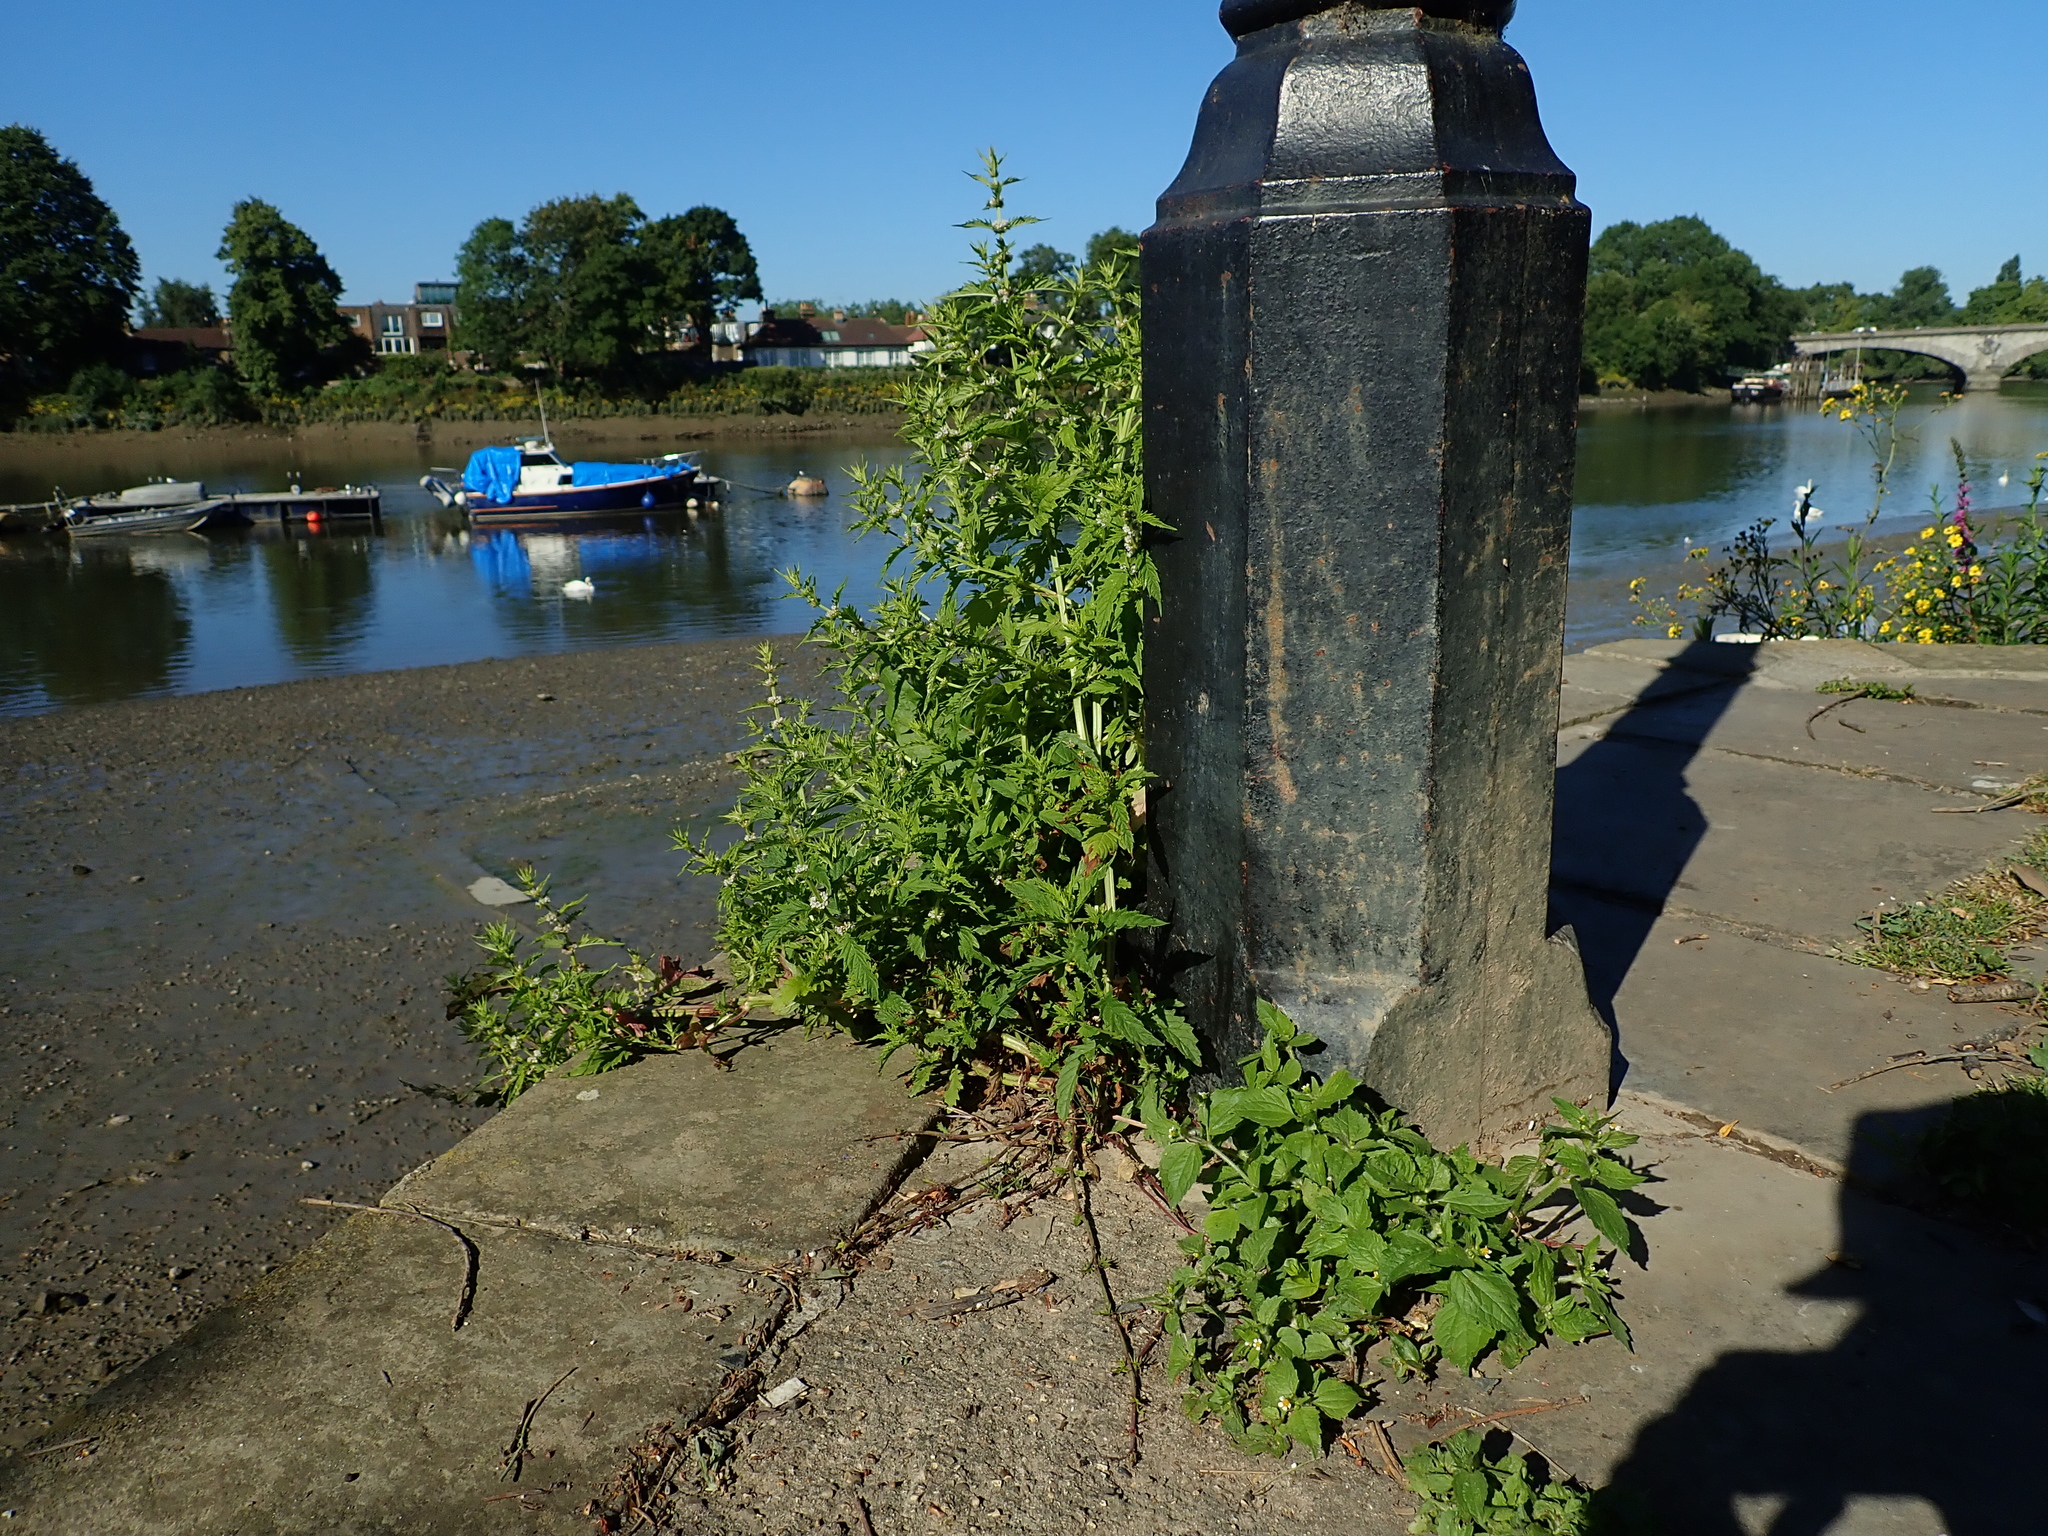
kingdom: Plantae
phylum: Tracheophyta
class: Magnoliopsida
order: Lamiales
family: Lamiaceae
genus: Lycopus
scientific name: Lycopus europaeus
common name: European bugleweed
